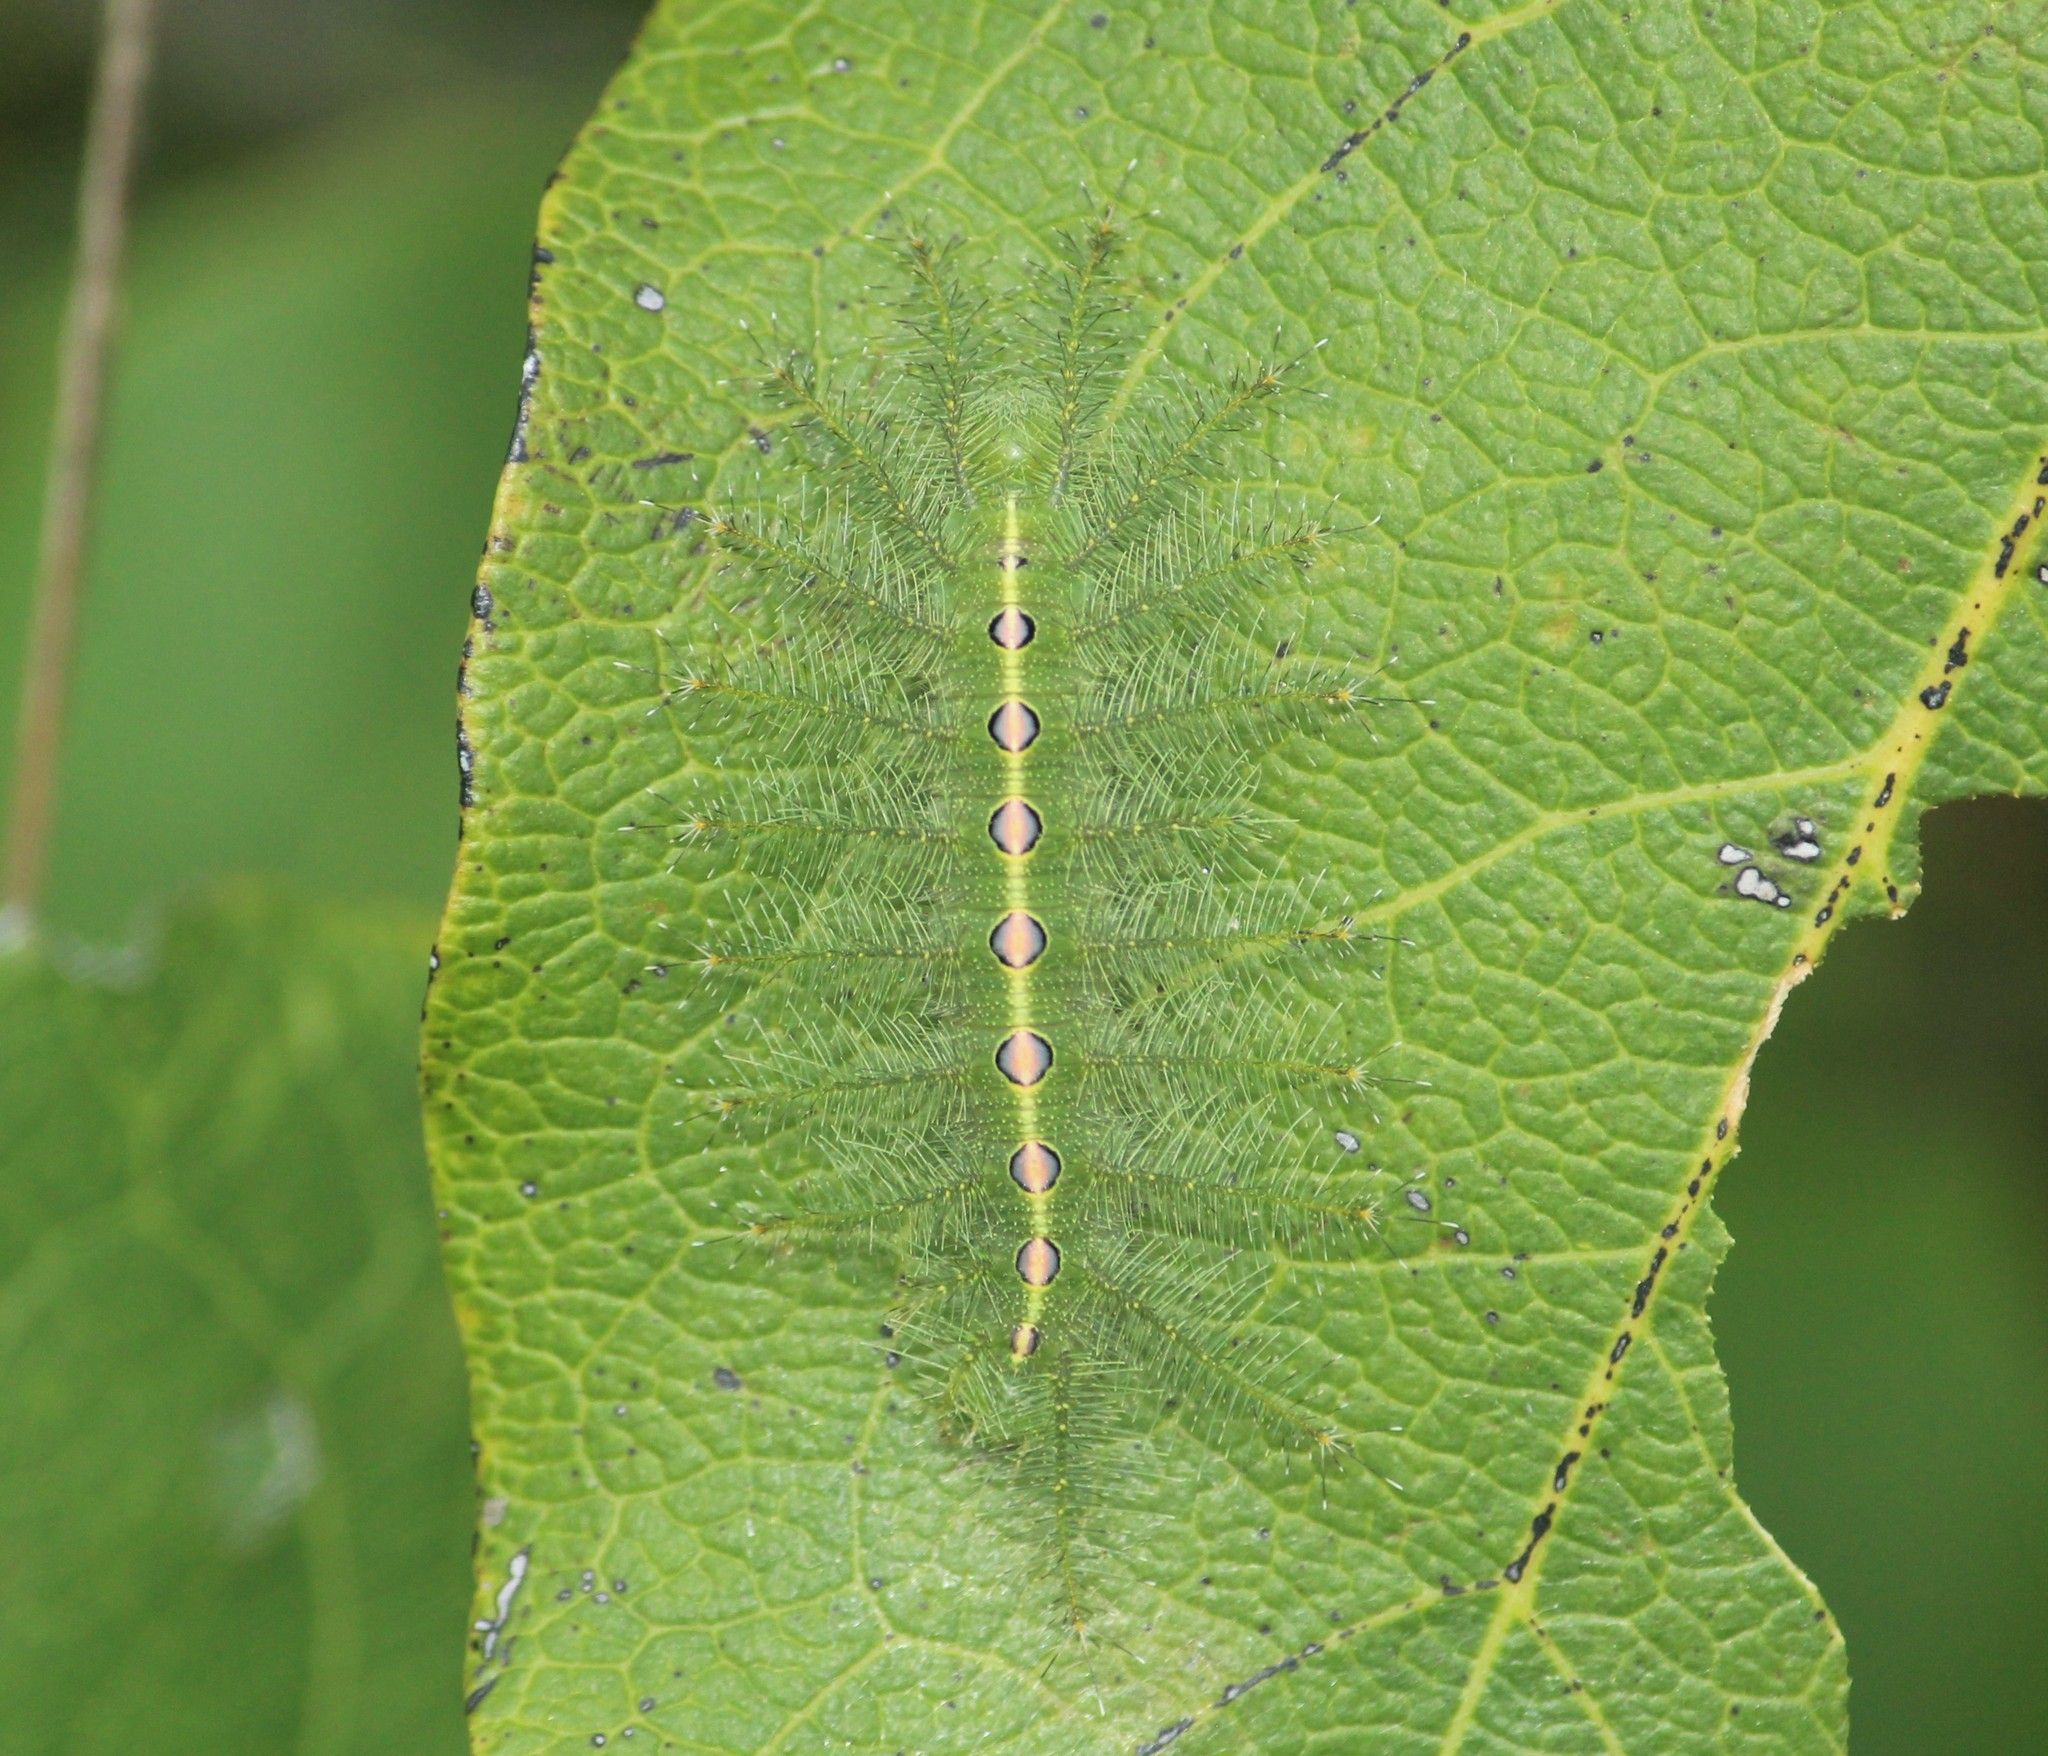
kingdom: Animalia
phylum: Arthropoda
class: Insecta
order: Lepidoptera
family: Nymphalidae
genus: Euthalia
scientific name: Euthalia nais
